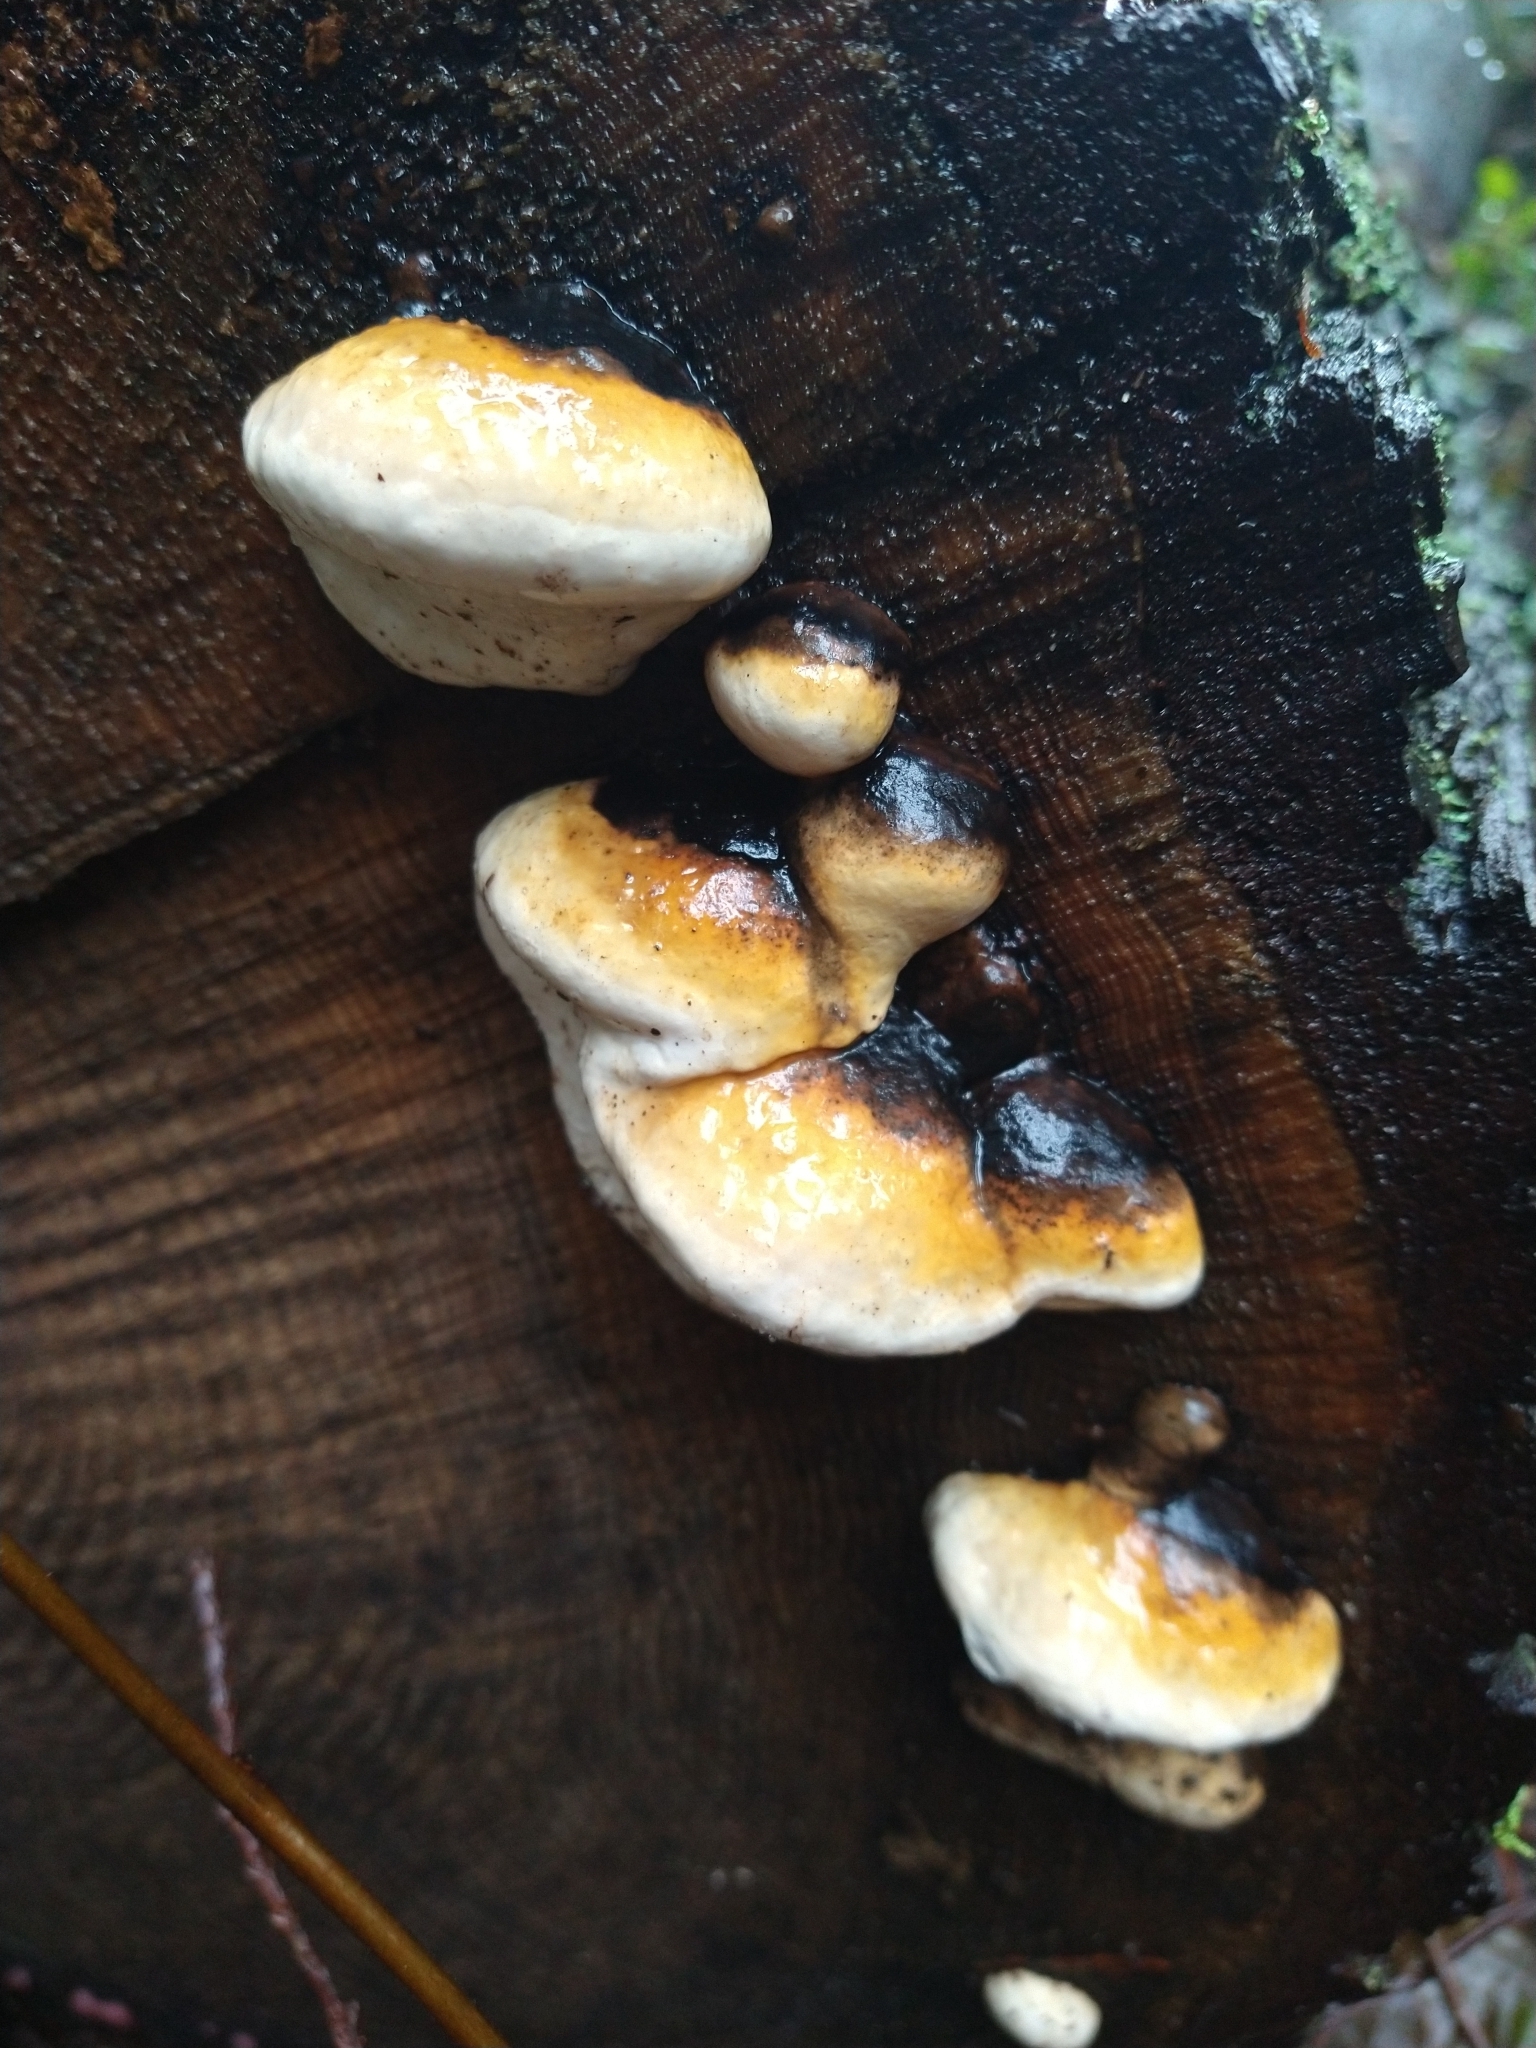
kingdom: Fungi
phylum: Basidiomycota
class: Agaricomycetes
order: Polyporales
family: Fomitopsidaceae
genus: Fomitopsis
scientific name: Fomitopsis mounceae
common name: Northern red belt
